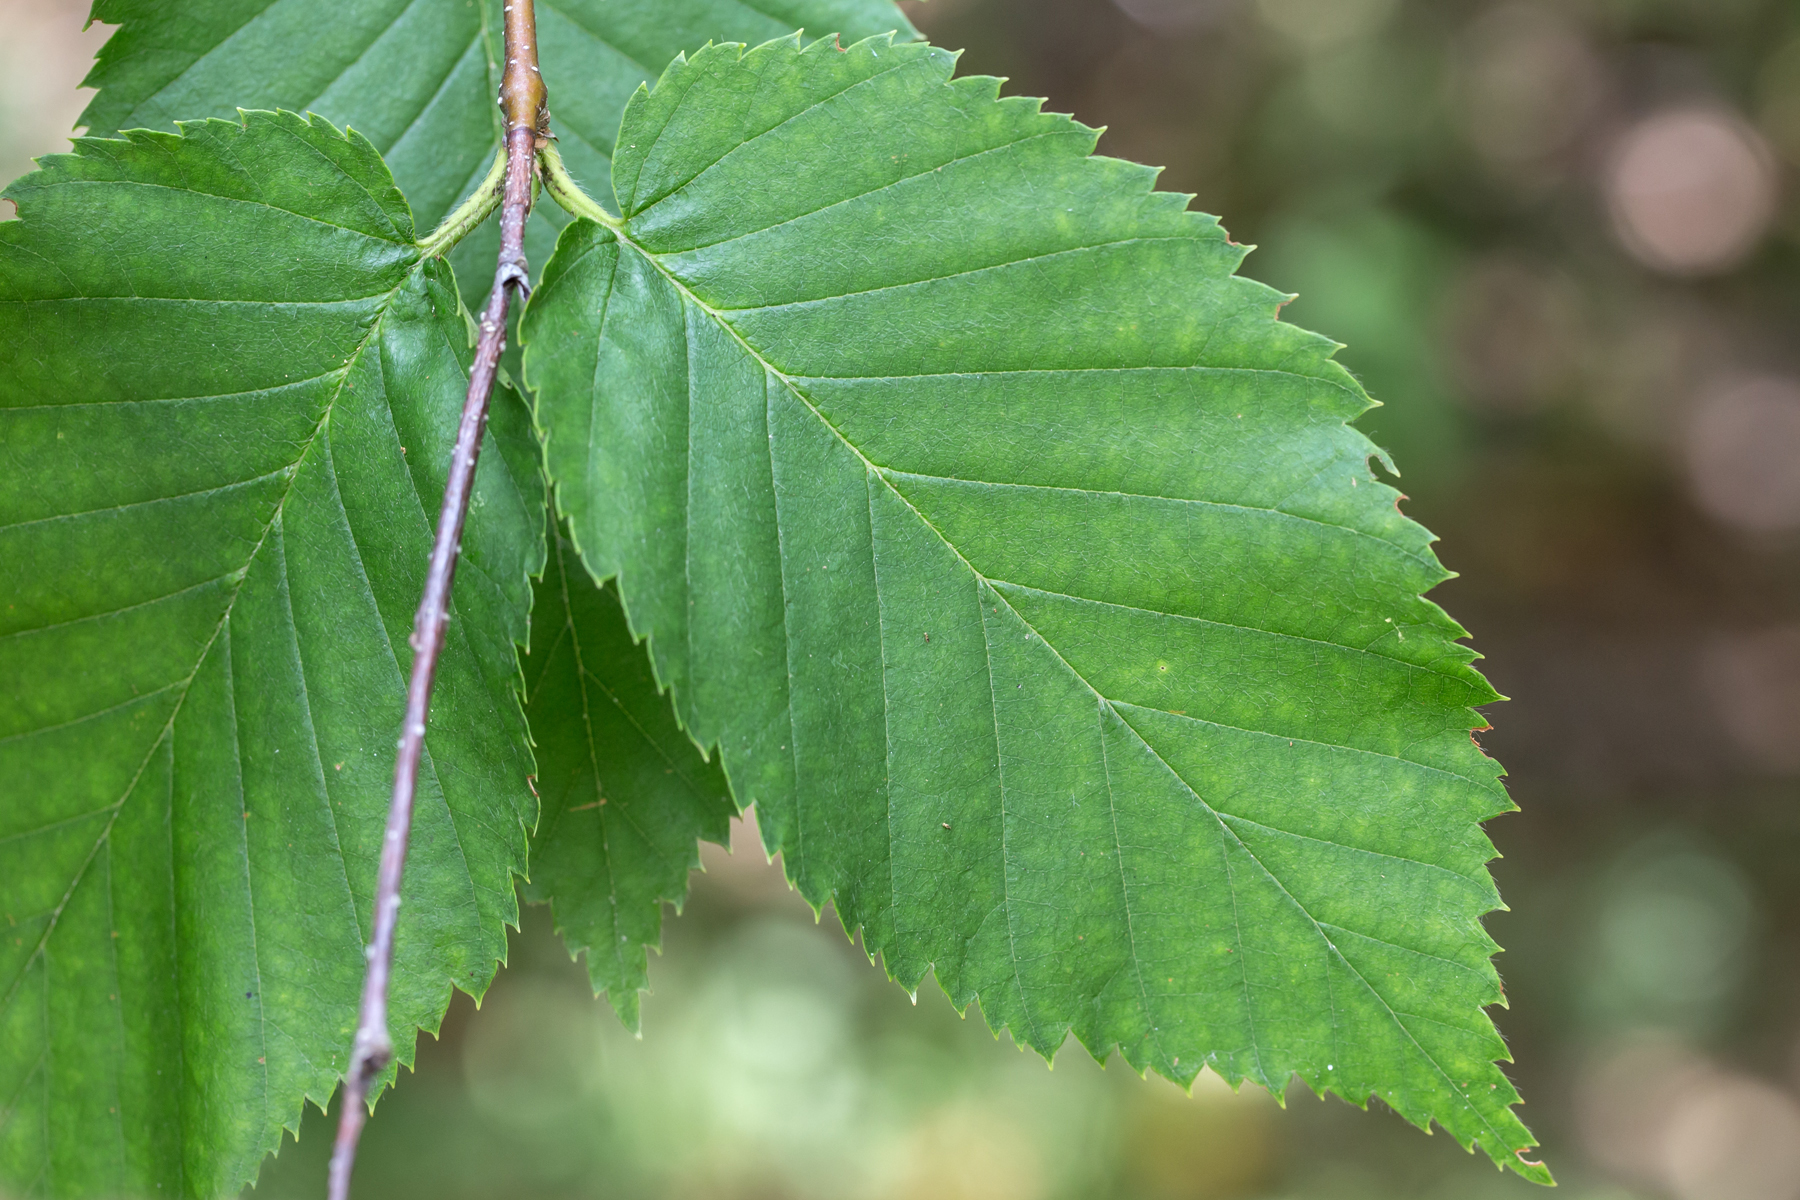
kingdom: Plantae
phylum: Tracheophyta
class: Magnoliopsida
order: Fagales
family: Betulaceae
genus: Betula
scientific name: Betula alleghaniensis
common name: Yellow birch
